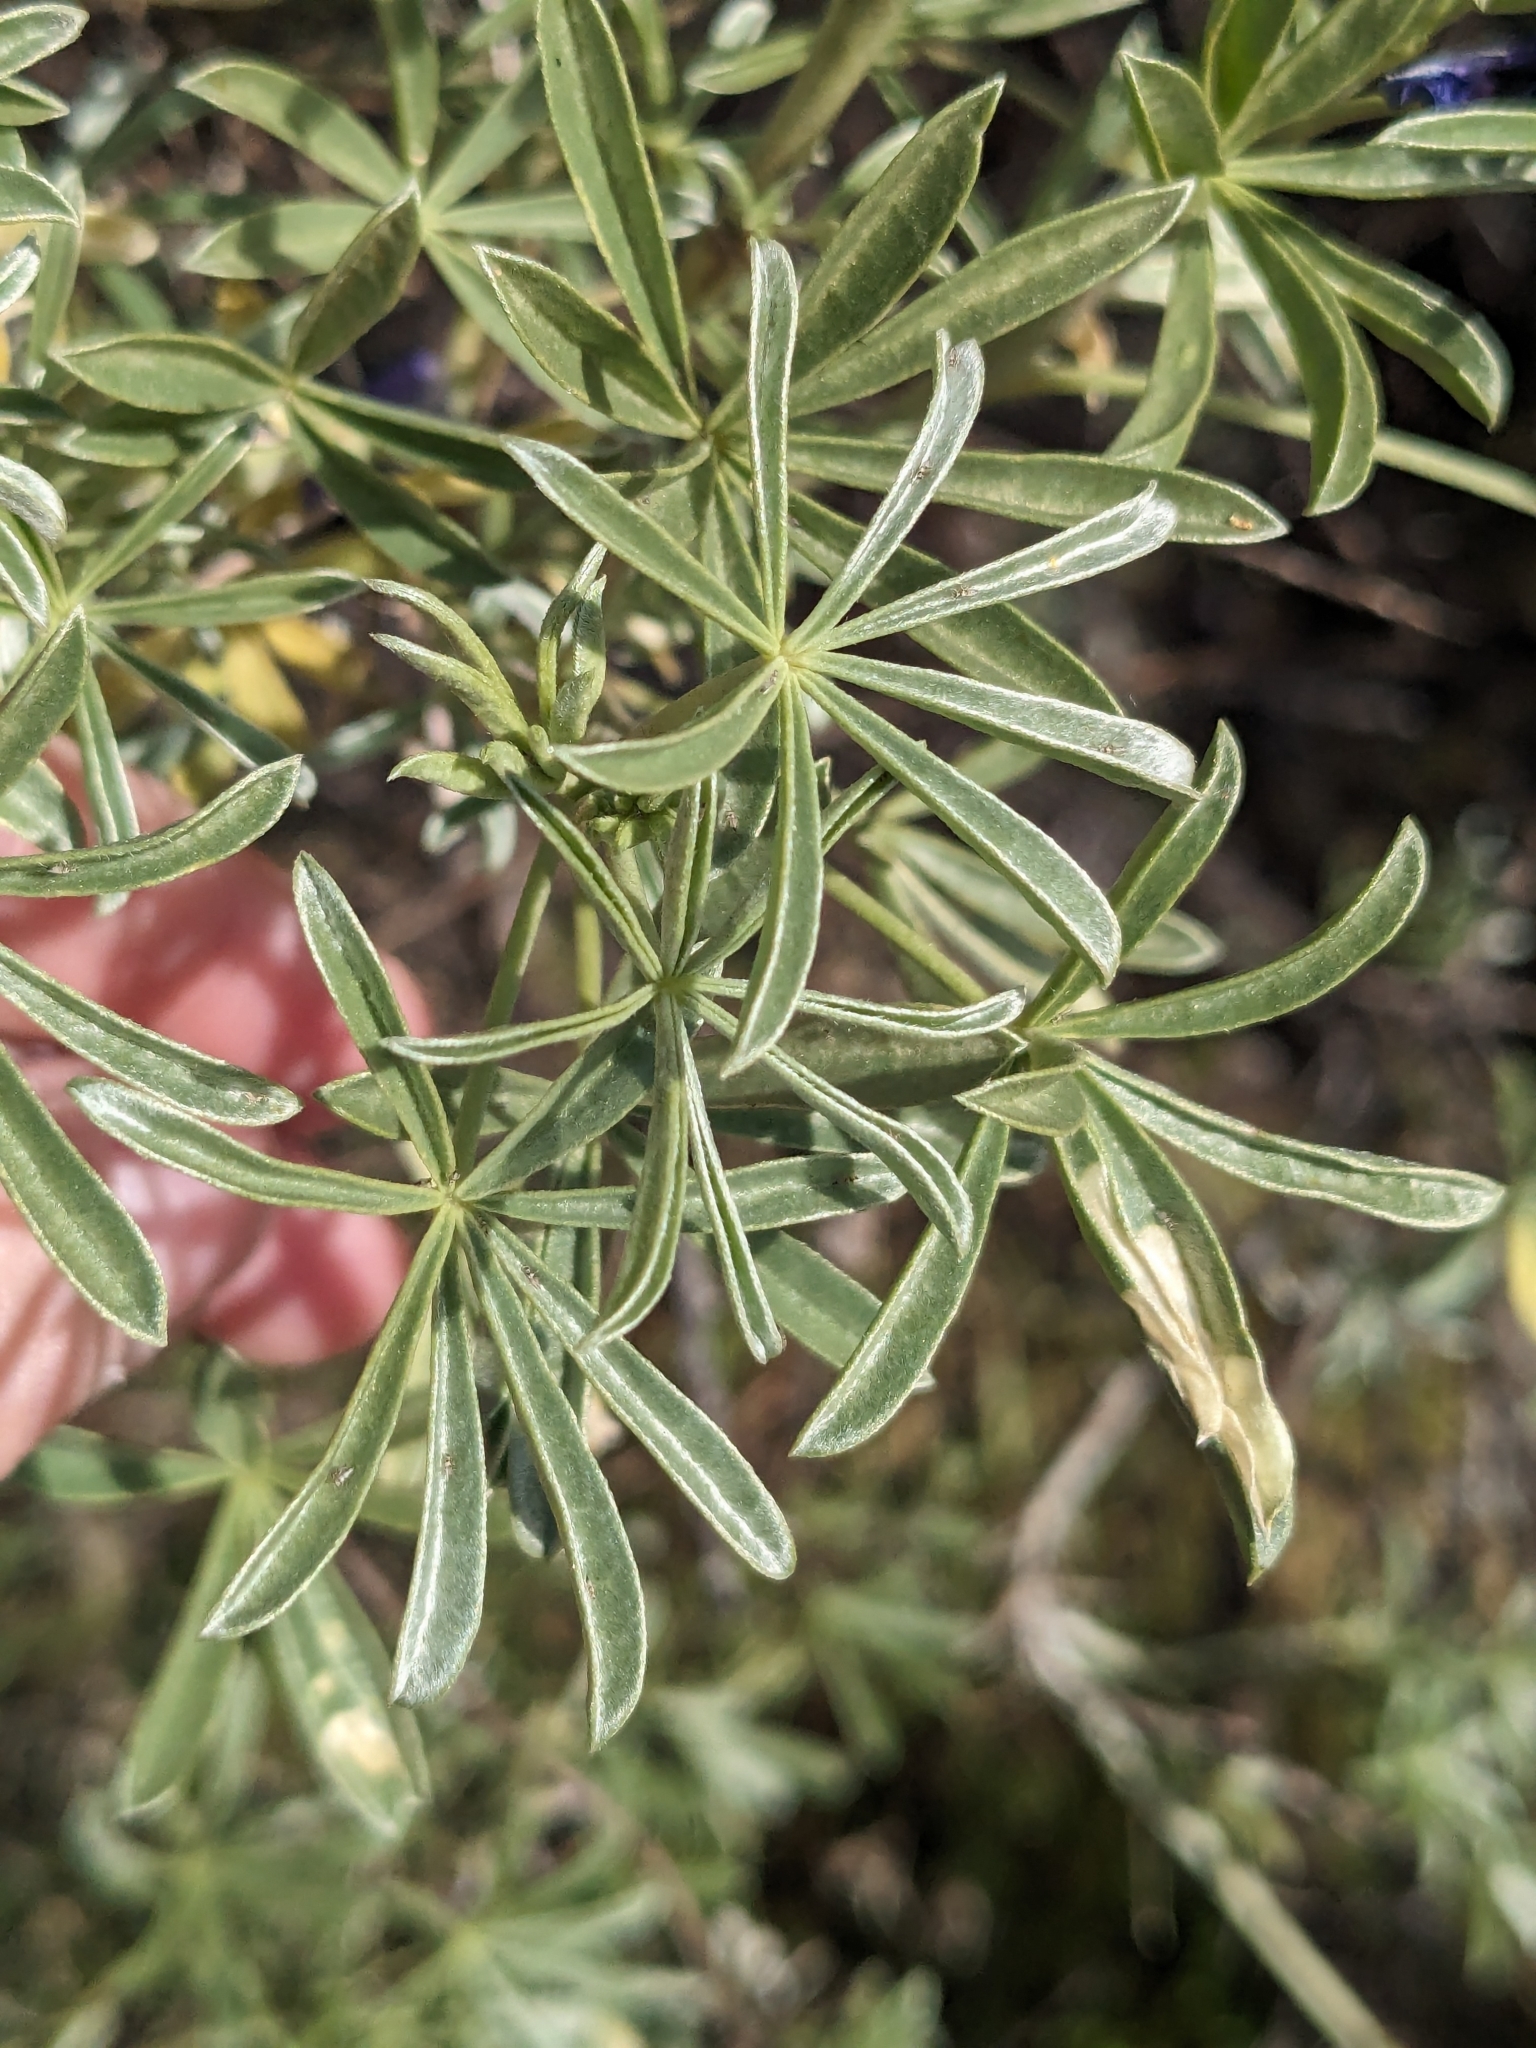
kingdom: Plantae
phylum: Tracheophyta
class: Magnoliopsida
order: Fabales
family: Fabaceae
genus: Lupinus
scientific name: Lupinus albifrons
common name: Foothill lupine
